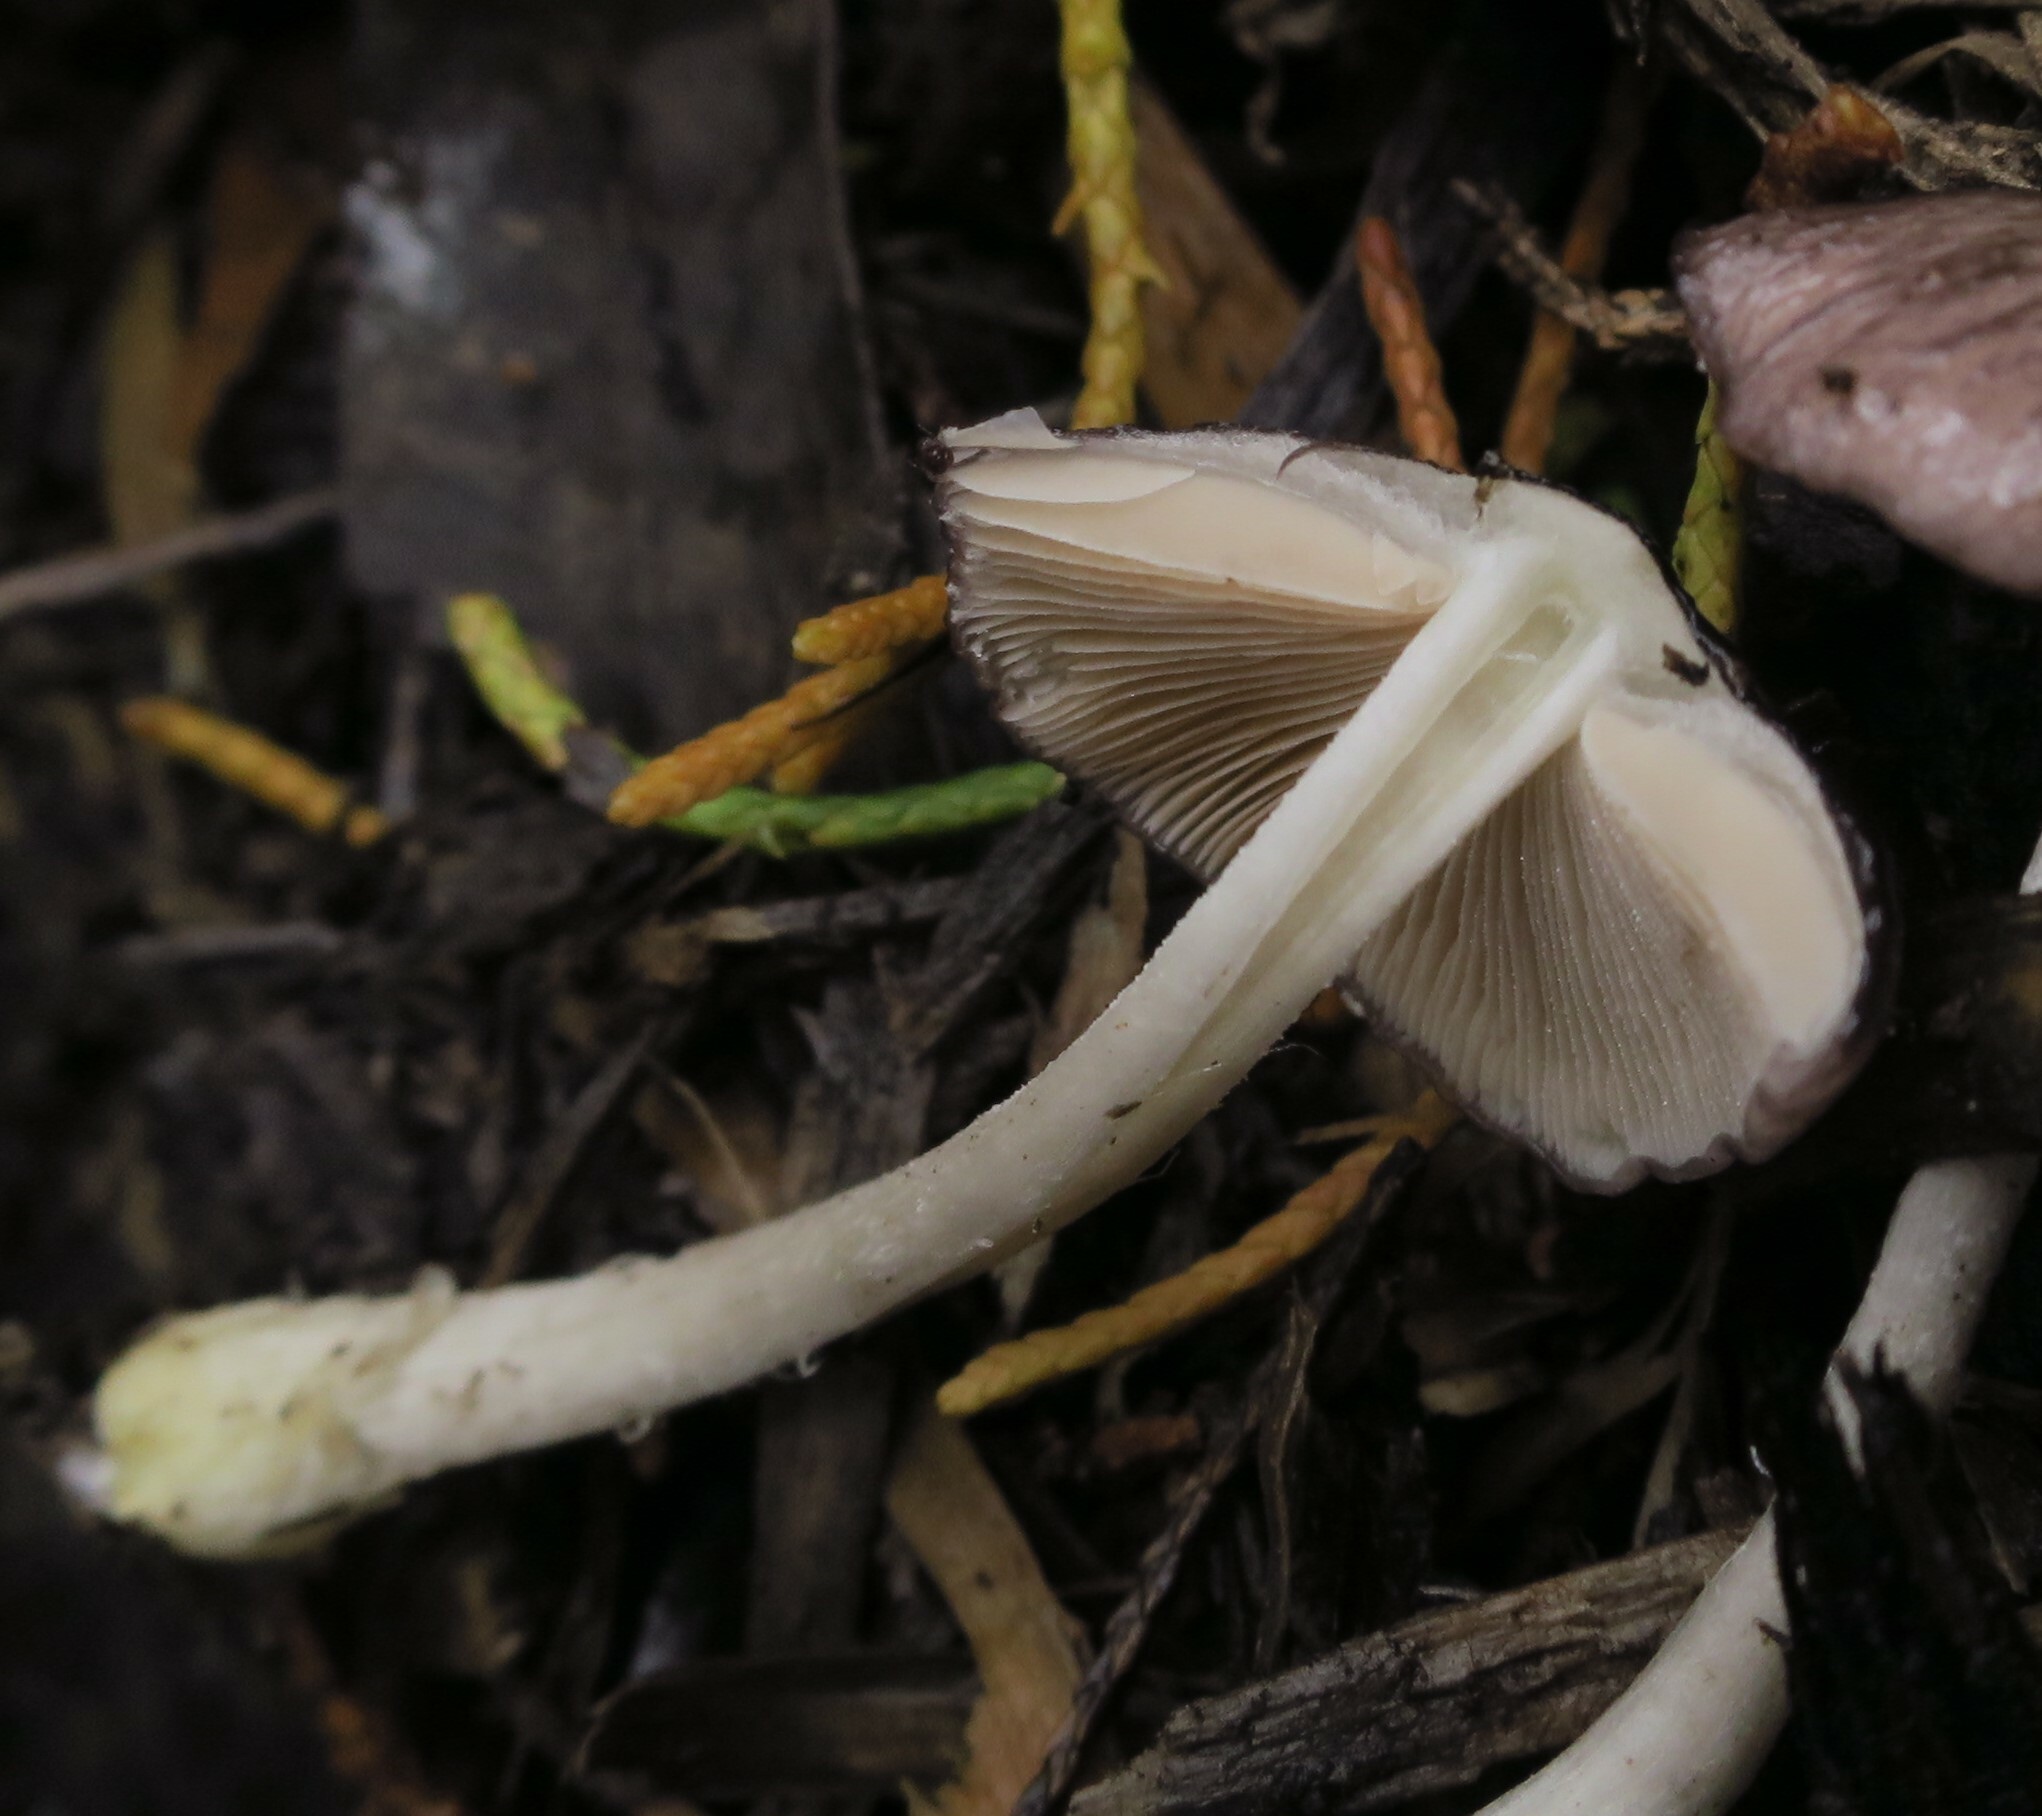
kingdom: Fungi
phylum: Basidiomycota
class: Agaricomycetes
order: Agaricales
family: Bolbitiaceae
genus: Bolbitius
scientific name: Bolbitius muscicola
